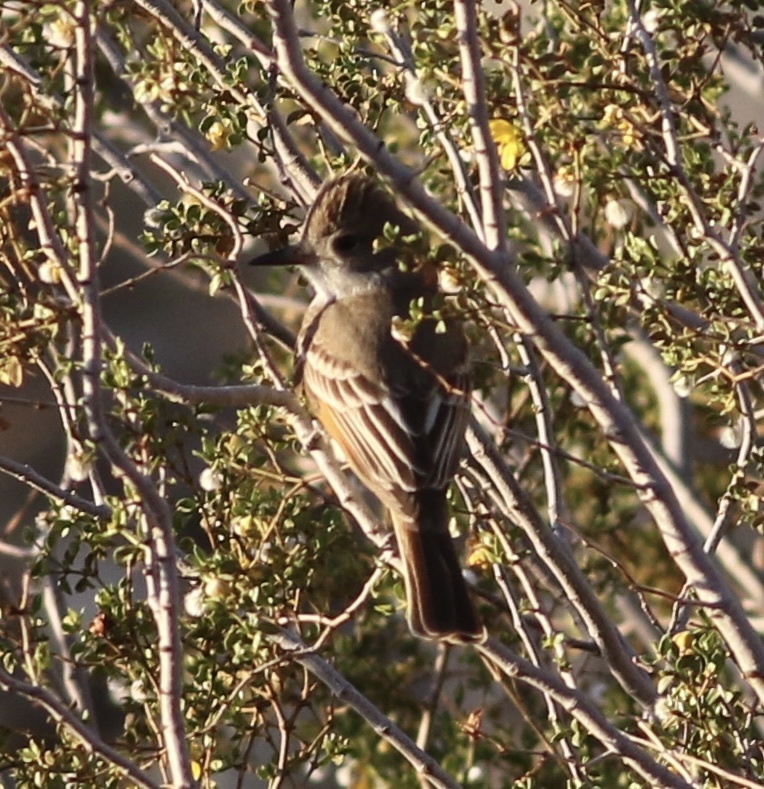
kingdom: Animalia
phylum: Chordata
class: Aves
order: Passeriformes
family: Tyrannidae
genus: Myiarchus
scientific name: Myiarchus cinerascens
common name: Ash-throated flycatcher
